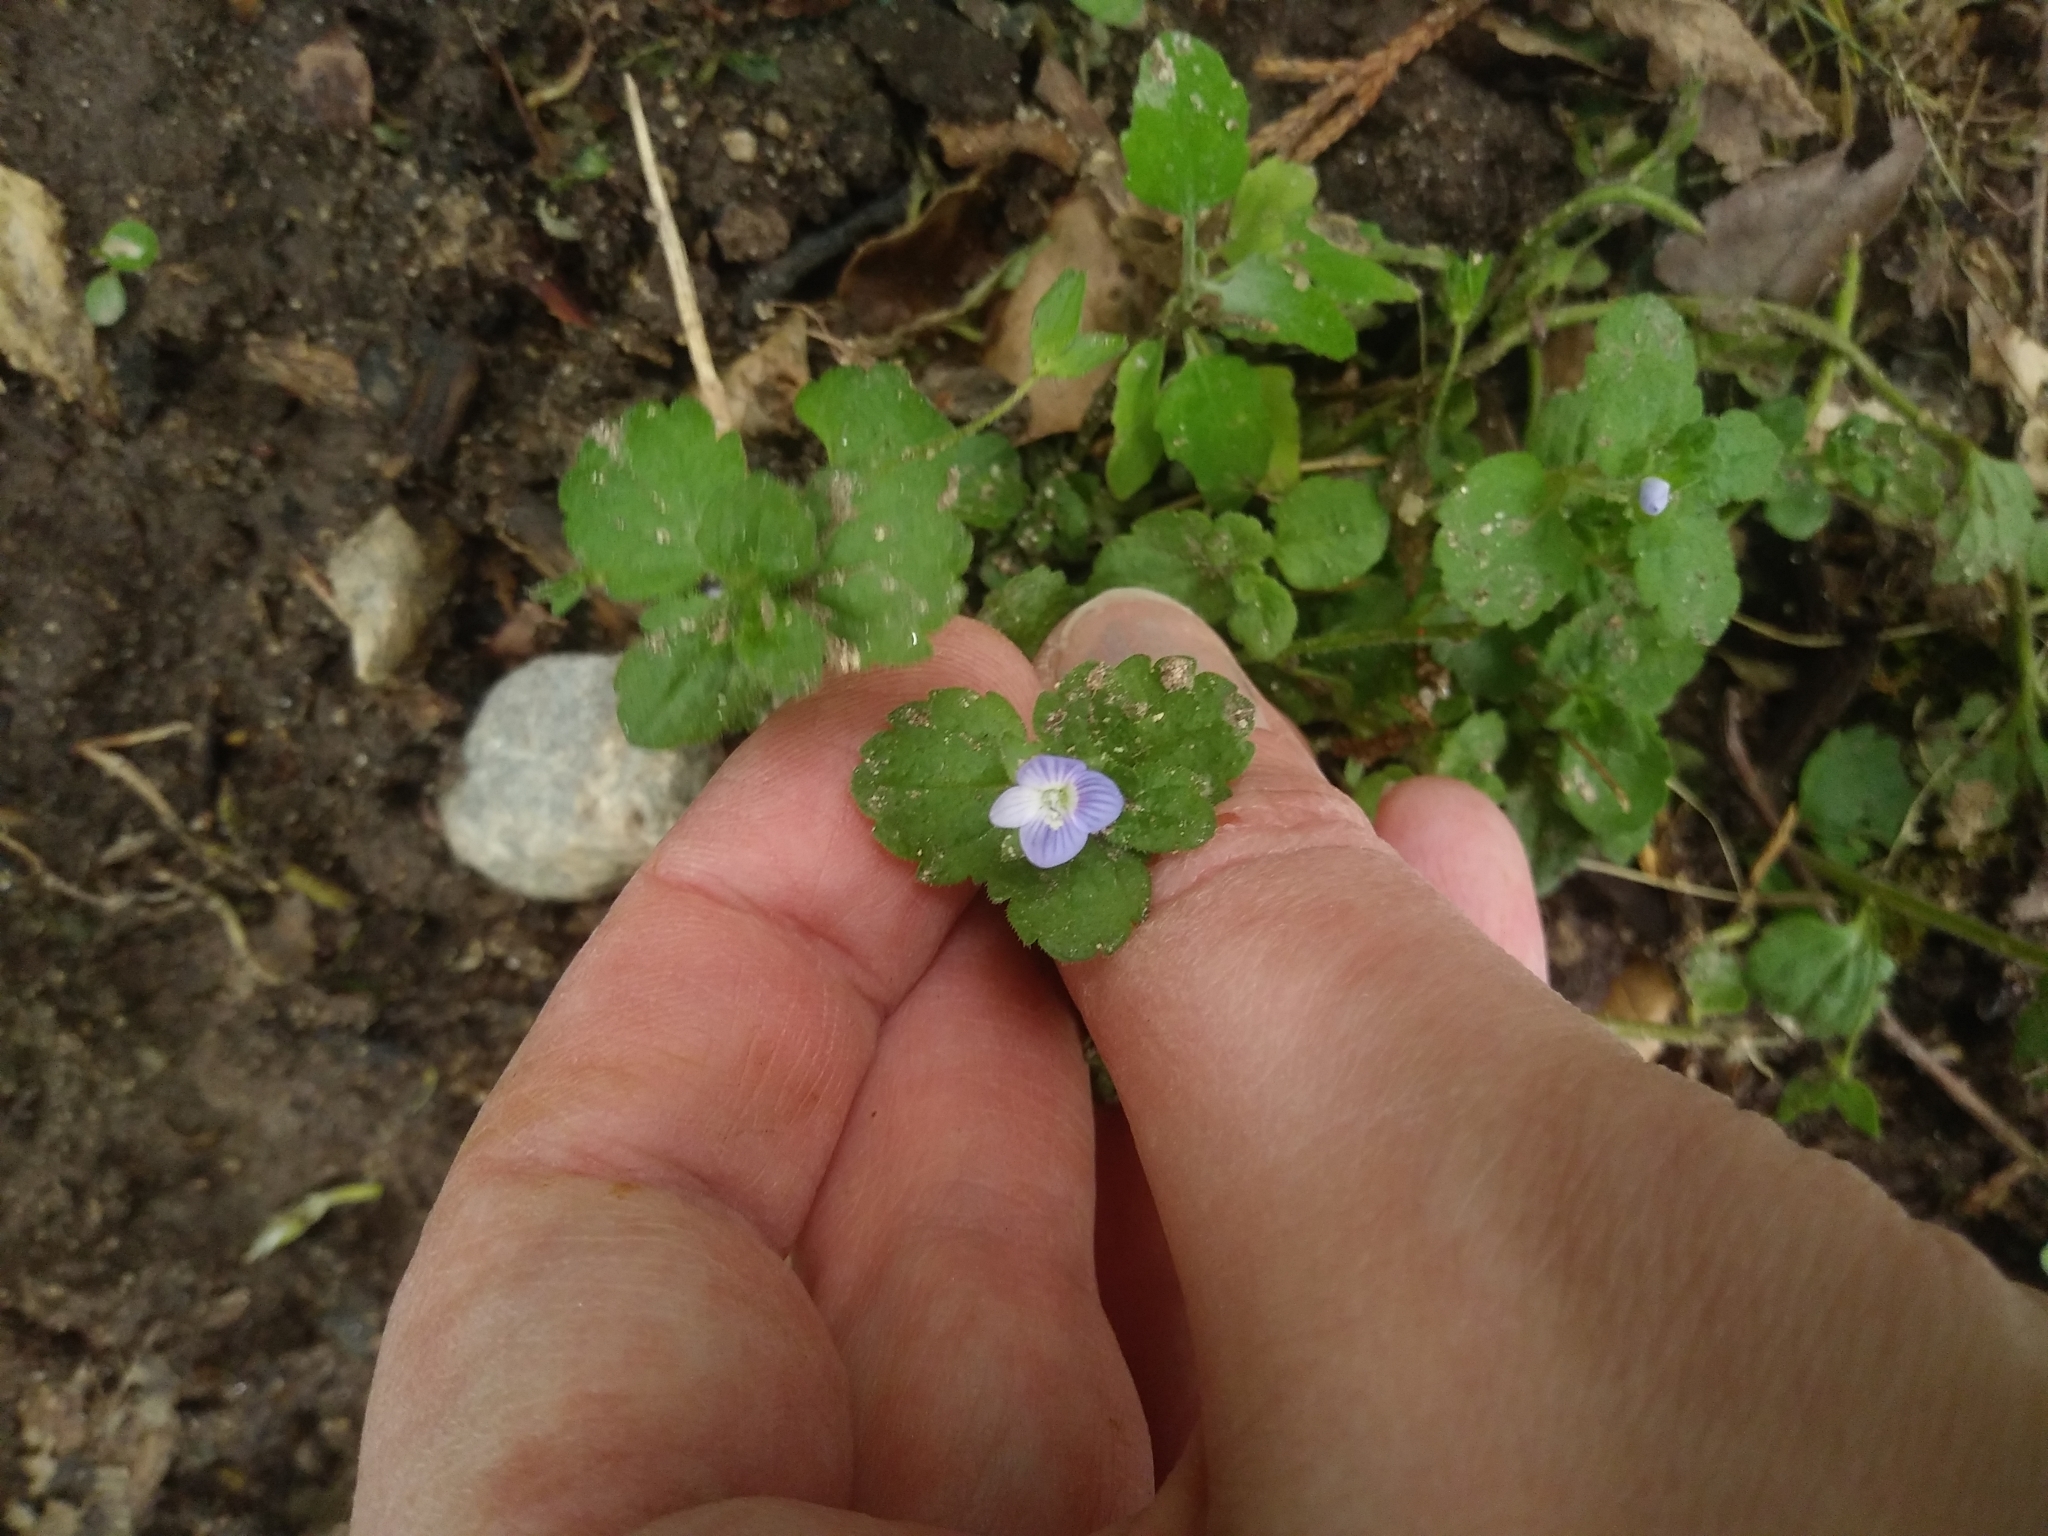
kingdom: Plantae
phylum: Tracheophyta
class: Magnoliopsida
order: Lamiales
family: Plantaginaceae
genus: Veronica
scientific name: Veronica persica
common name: Common field-speedwell
